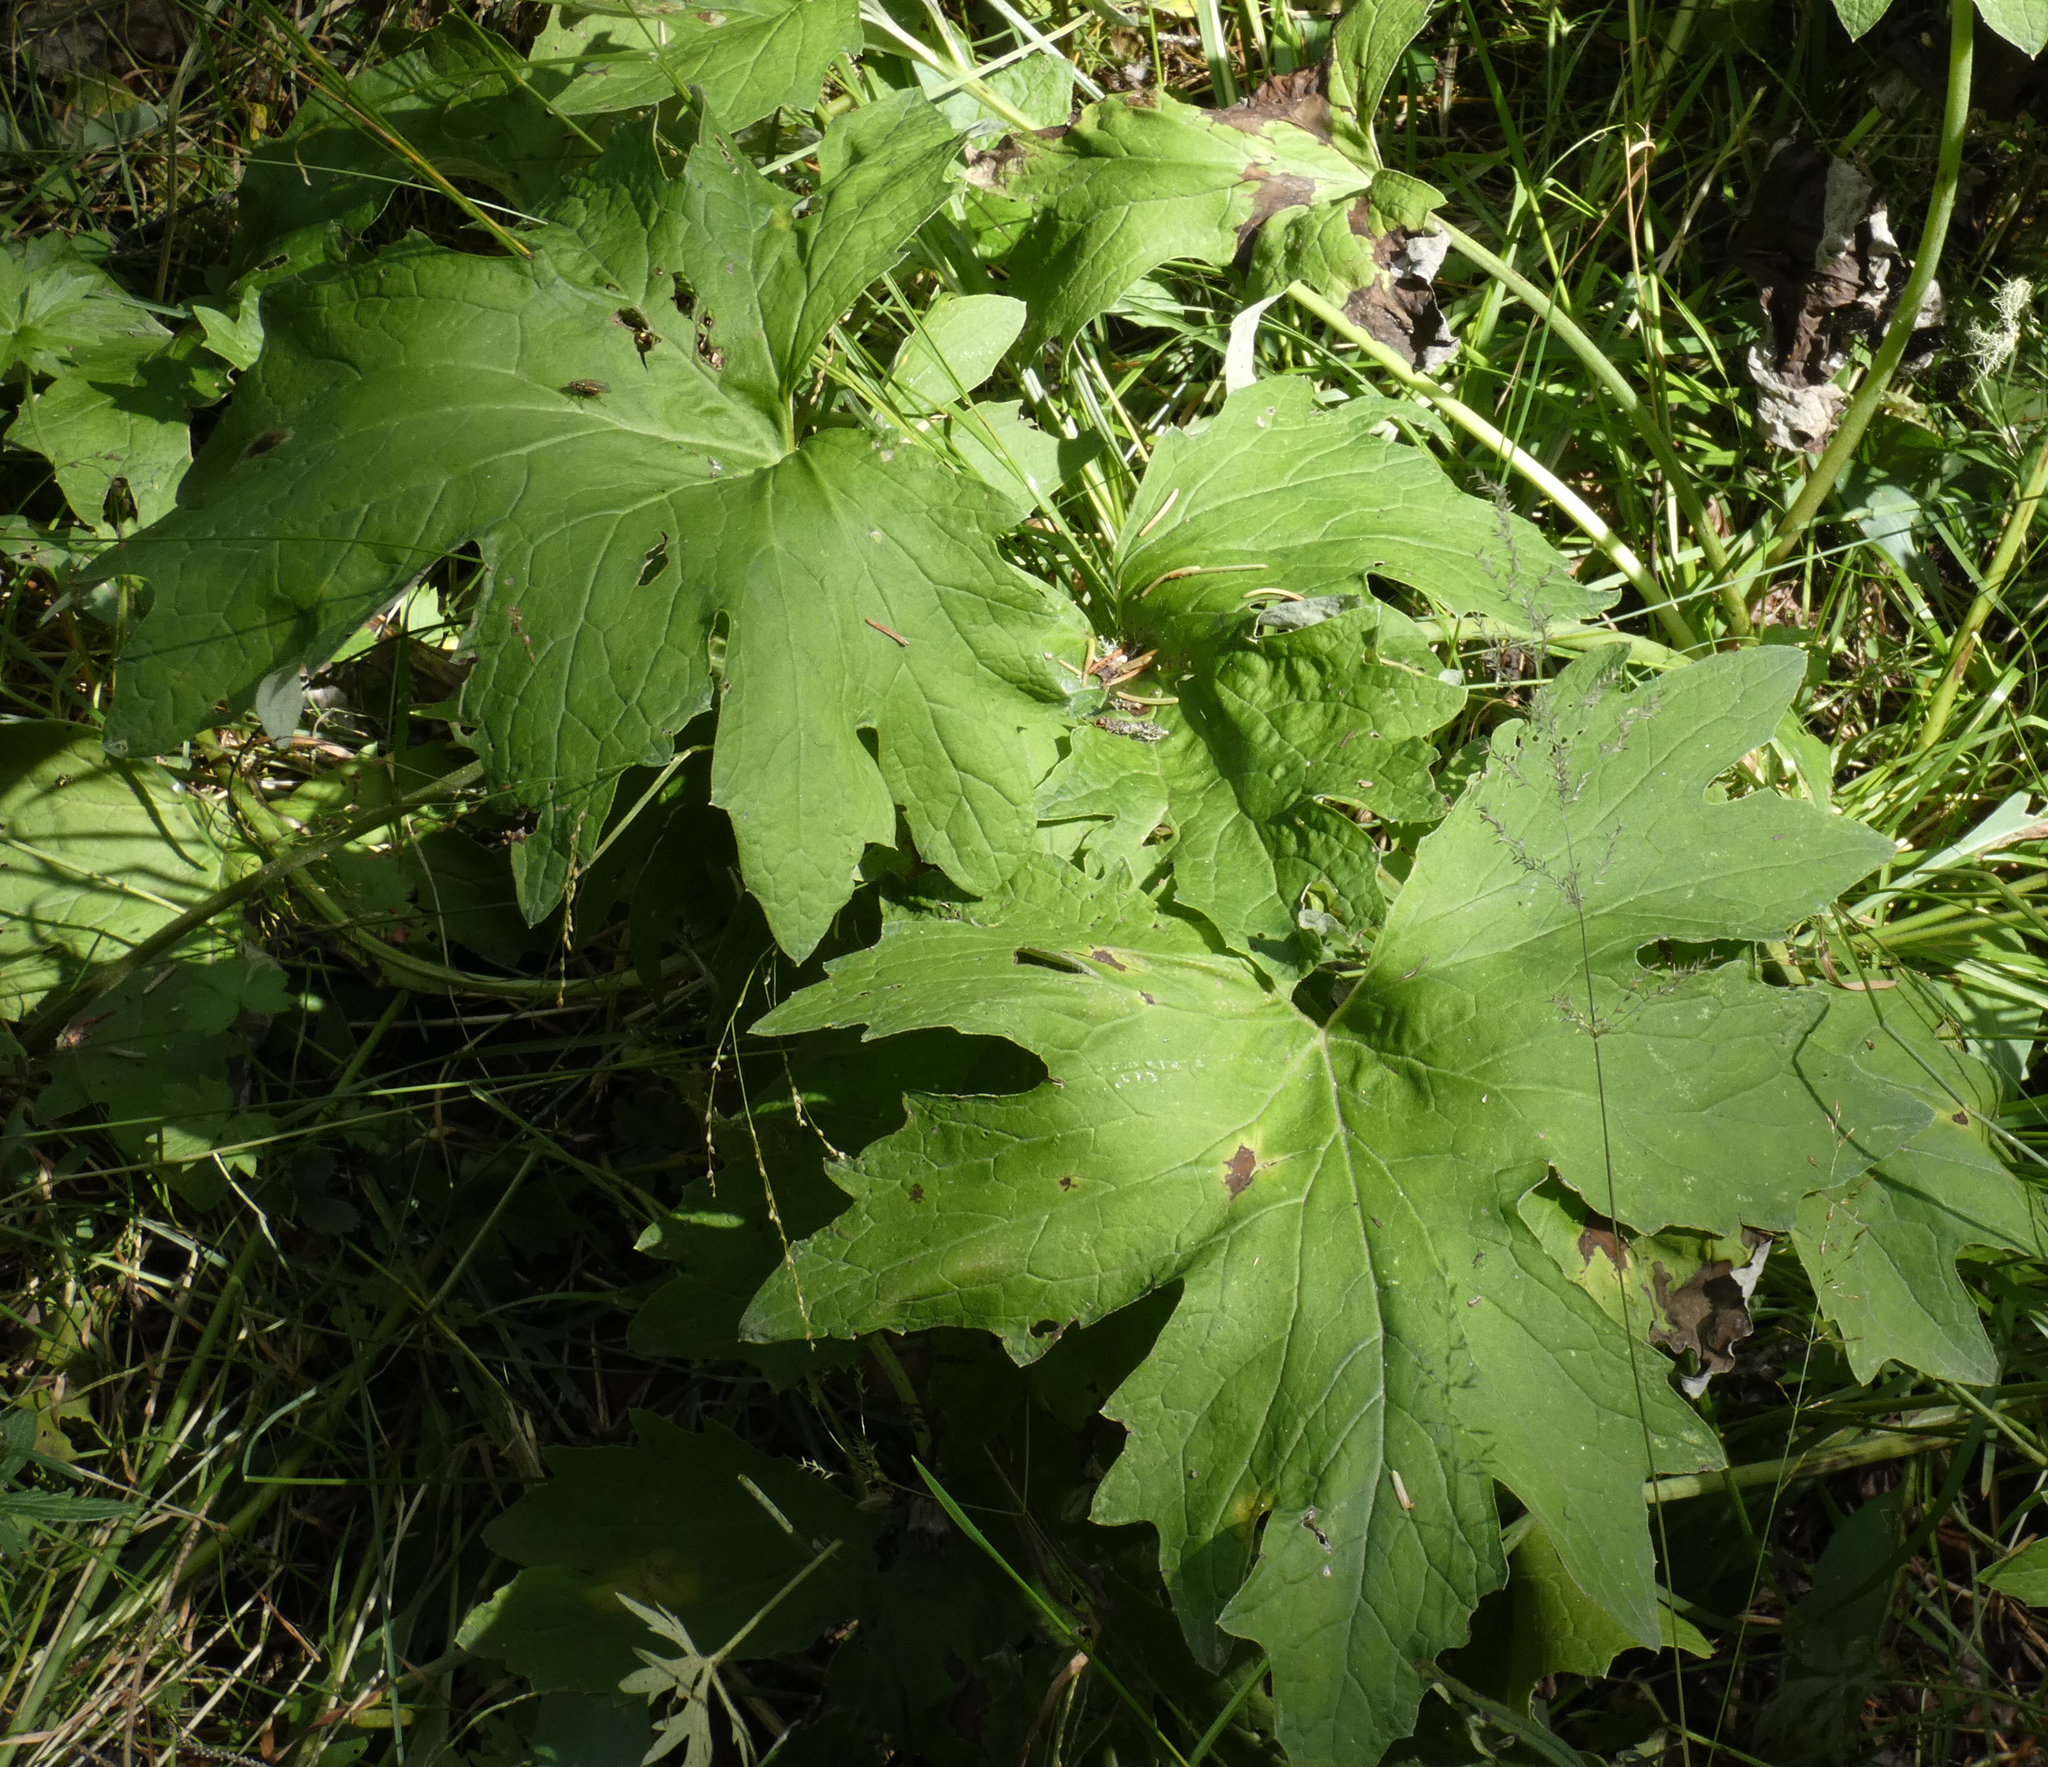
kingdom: Plantae
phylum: Tracheophyta
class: Magnoliopsida
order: Asterales
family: Asteraceae
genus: Petasites
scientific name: Petasites frigidus
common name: Arctic butterbur
